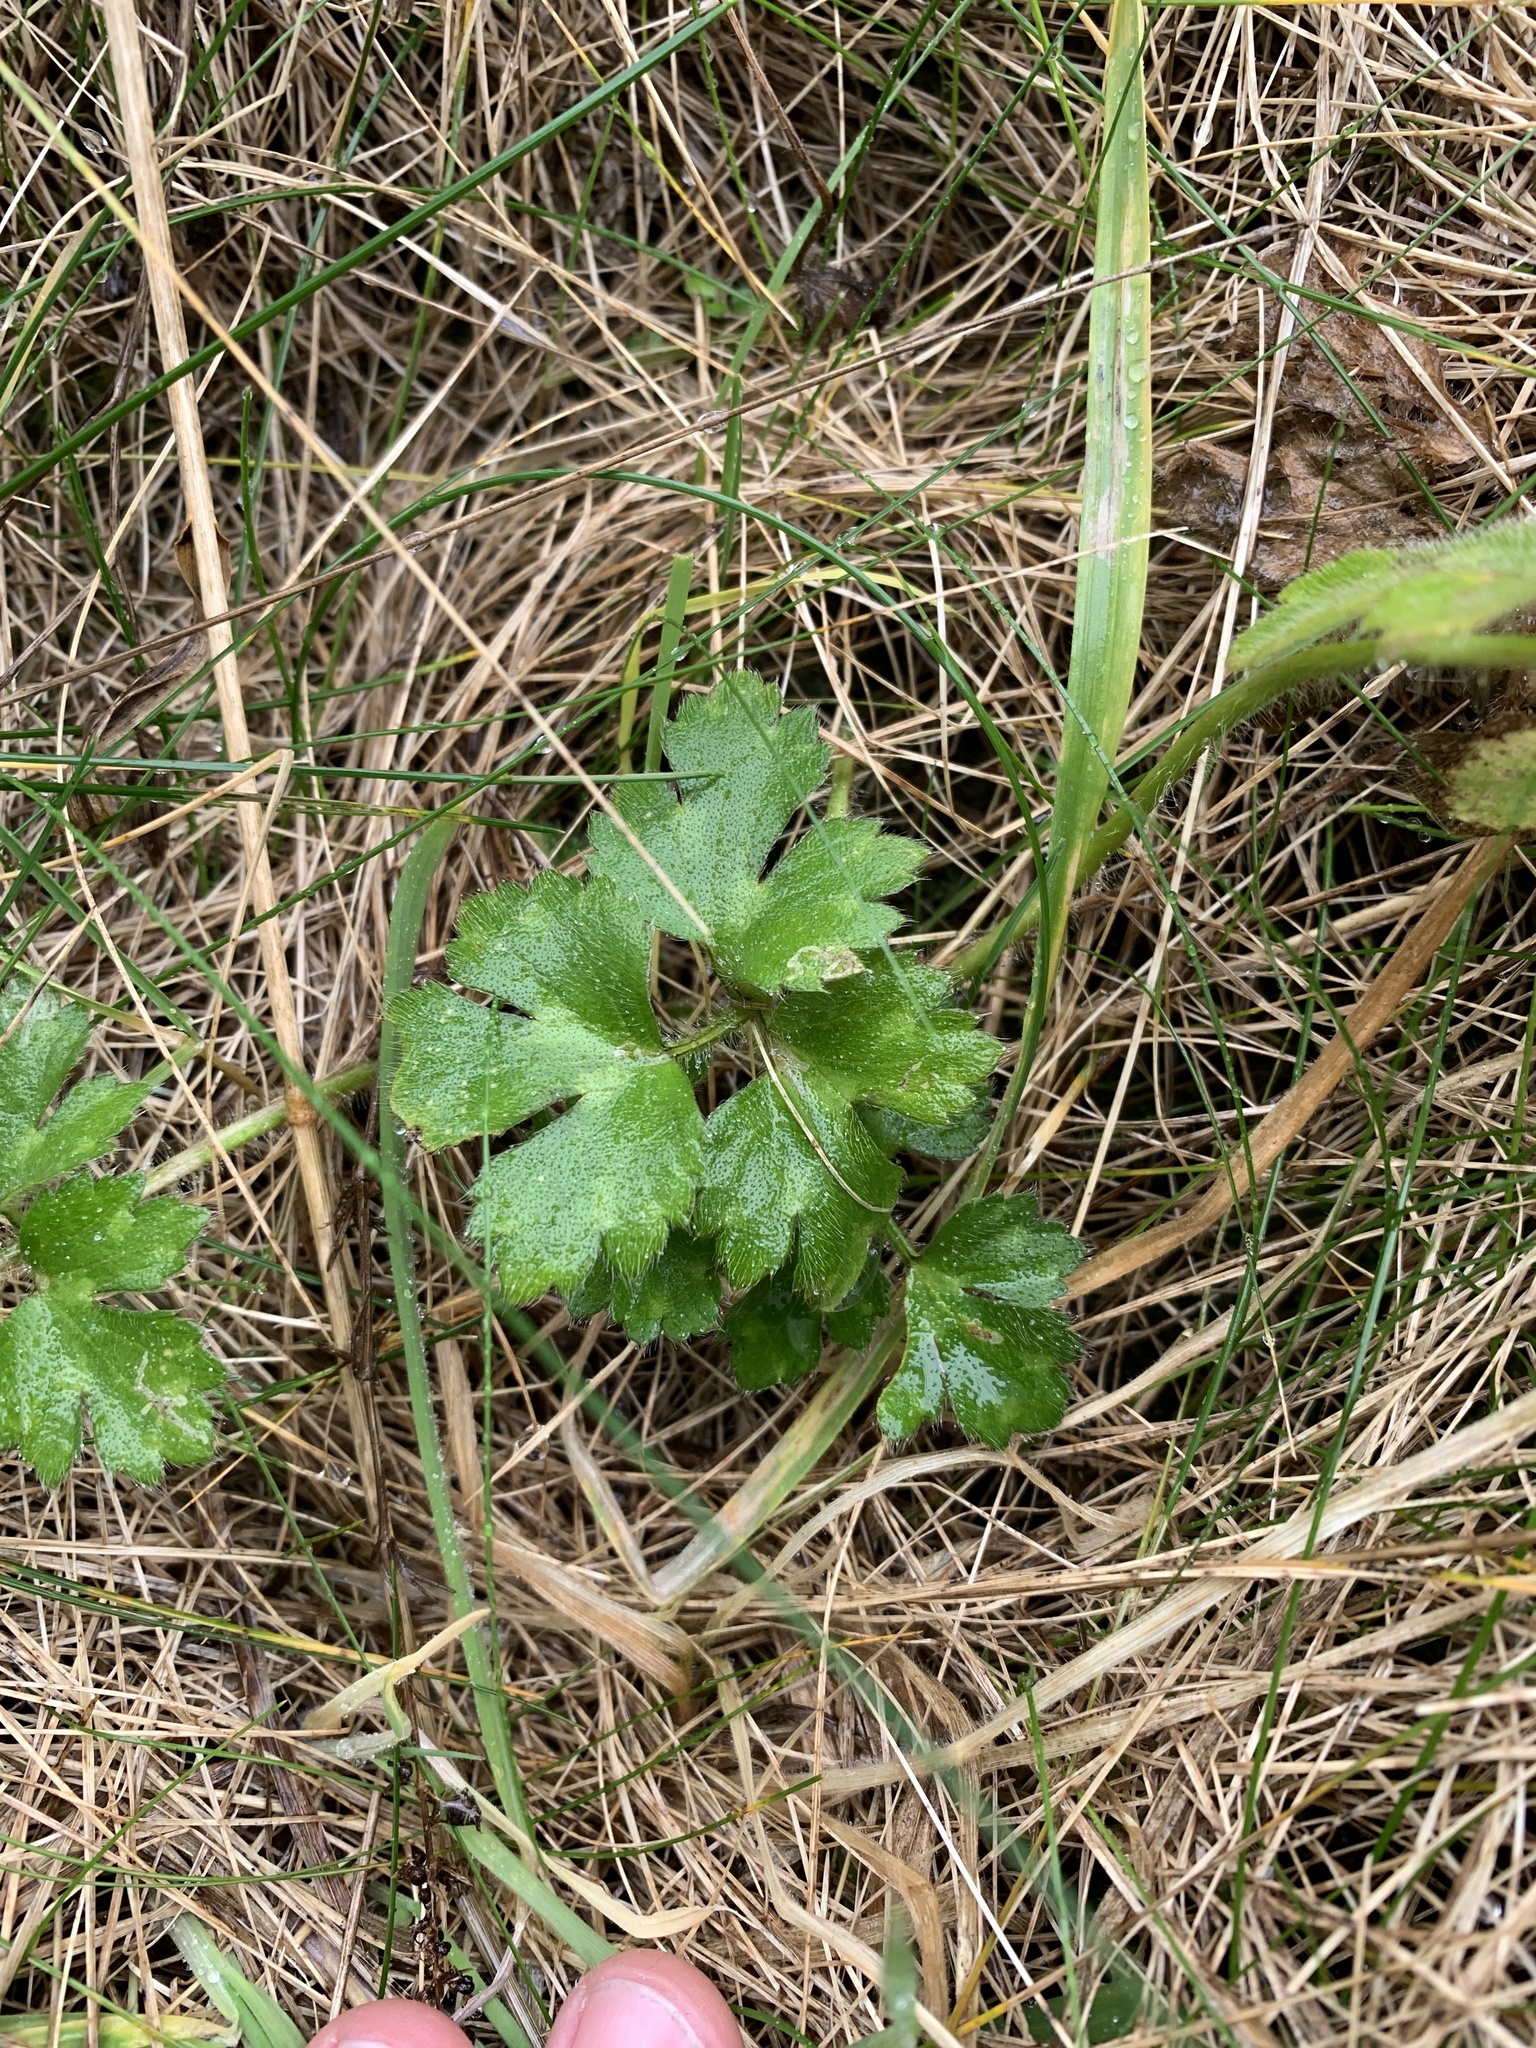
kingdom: Plantae
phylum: Tracheophyta
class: Magnoliopsida
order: Ranunculales
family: Ranunculaceae
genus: Ranunculus
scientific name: Ranunculus repens
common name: Creeping buttercup
